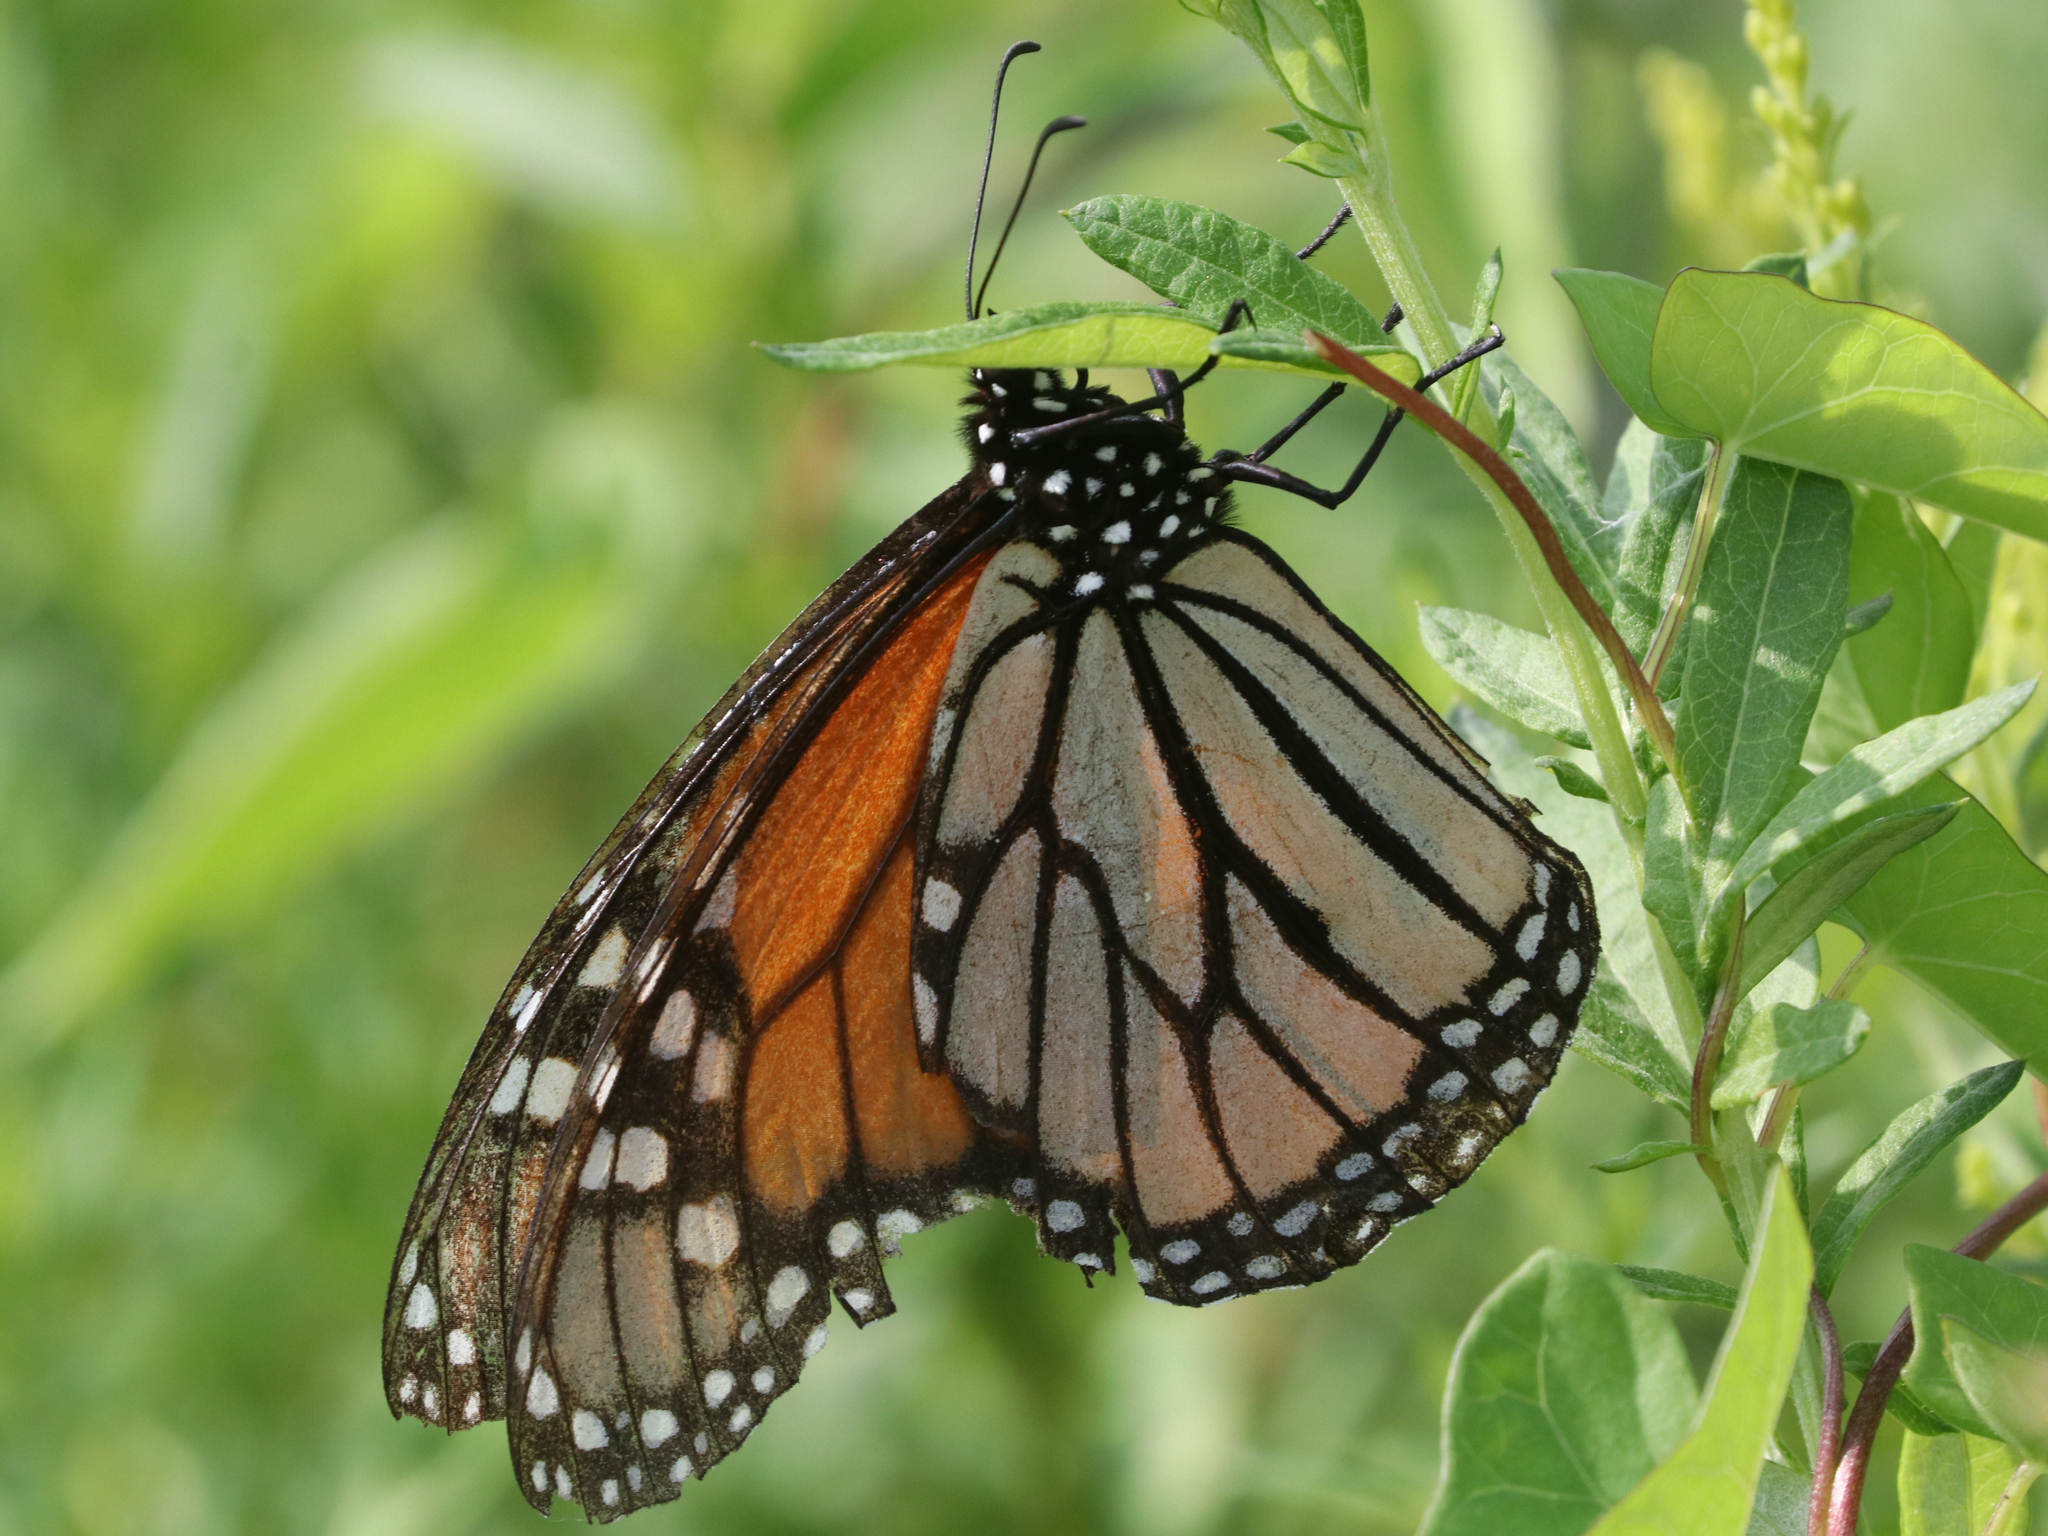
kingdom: Animalia
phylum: Arthropoda
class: Insecta
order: Lepidoptera
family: Nymphalidae
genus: Danaus
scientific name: Danaus plexippus
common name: Monarch
